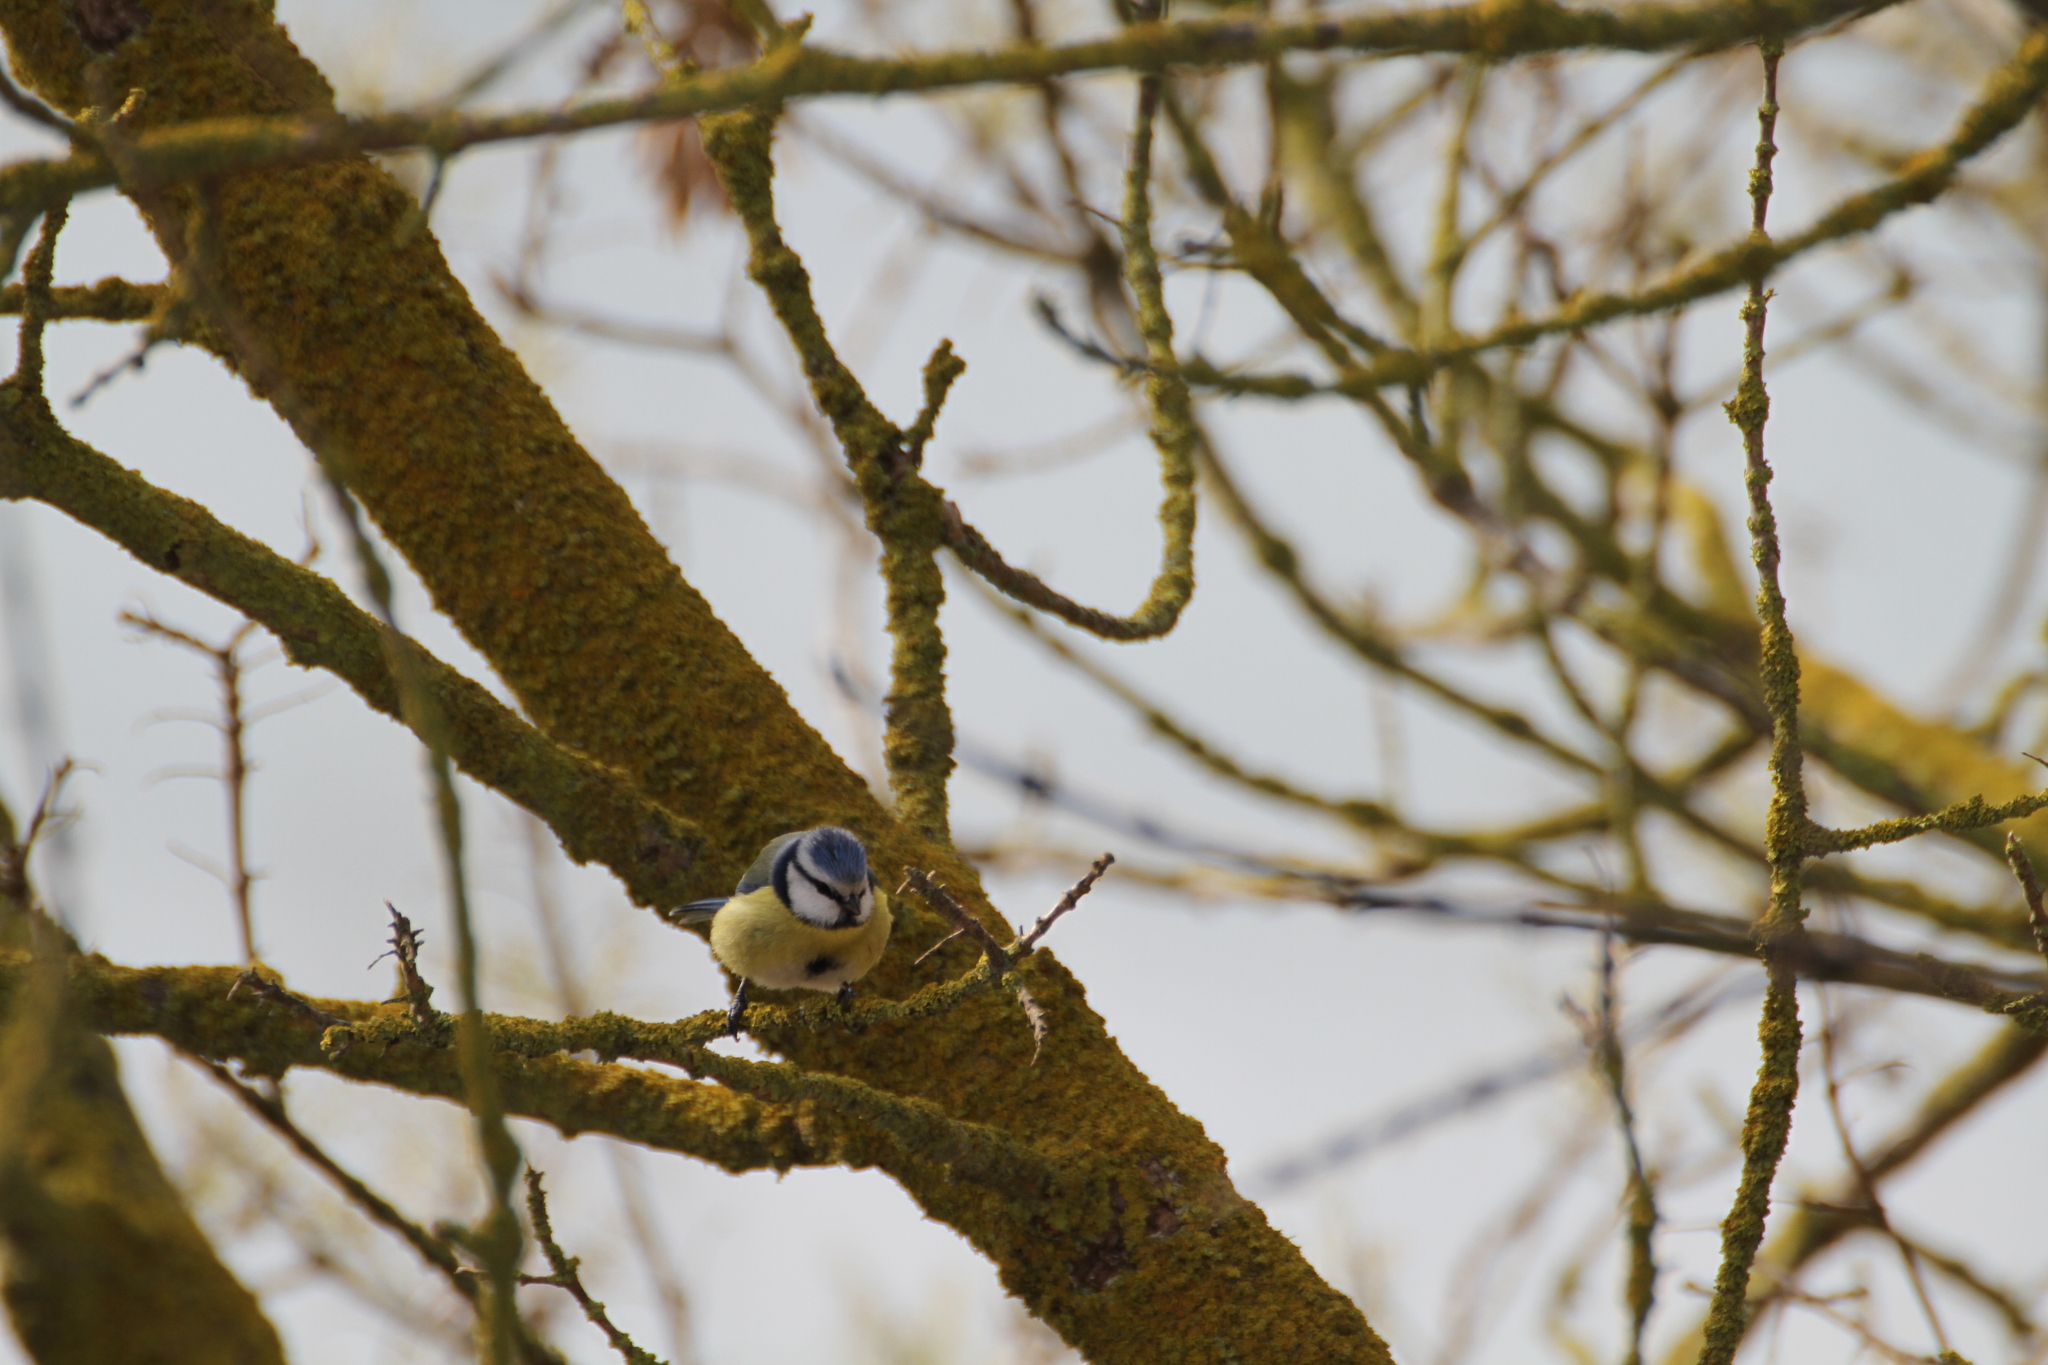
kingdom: Animalia
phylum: Chordata
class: Aves
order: Passeriformes
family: Paridae
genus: Cyanistes
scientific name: Cyanistes caeruleus
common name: Eurasian blue tit
